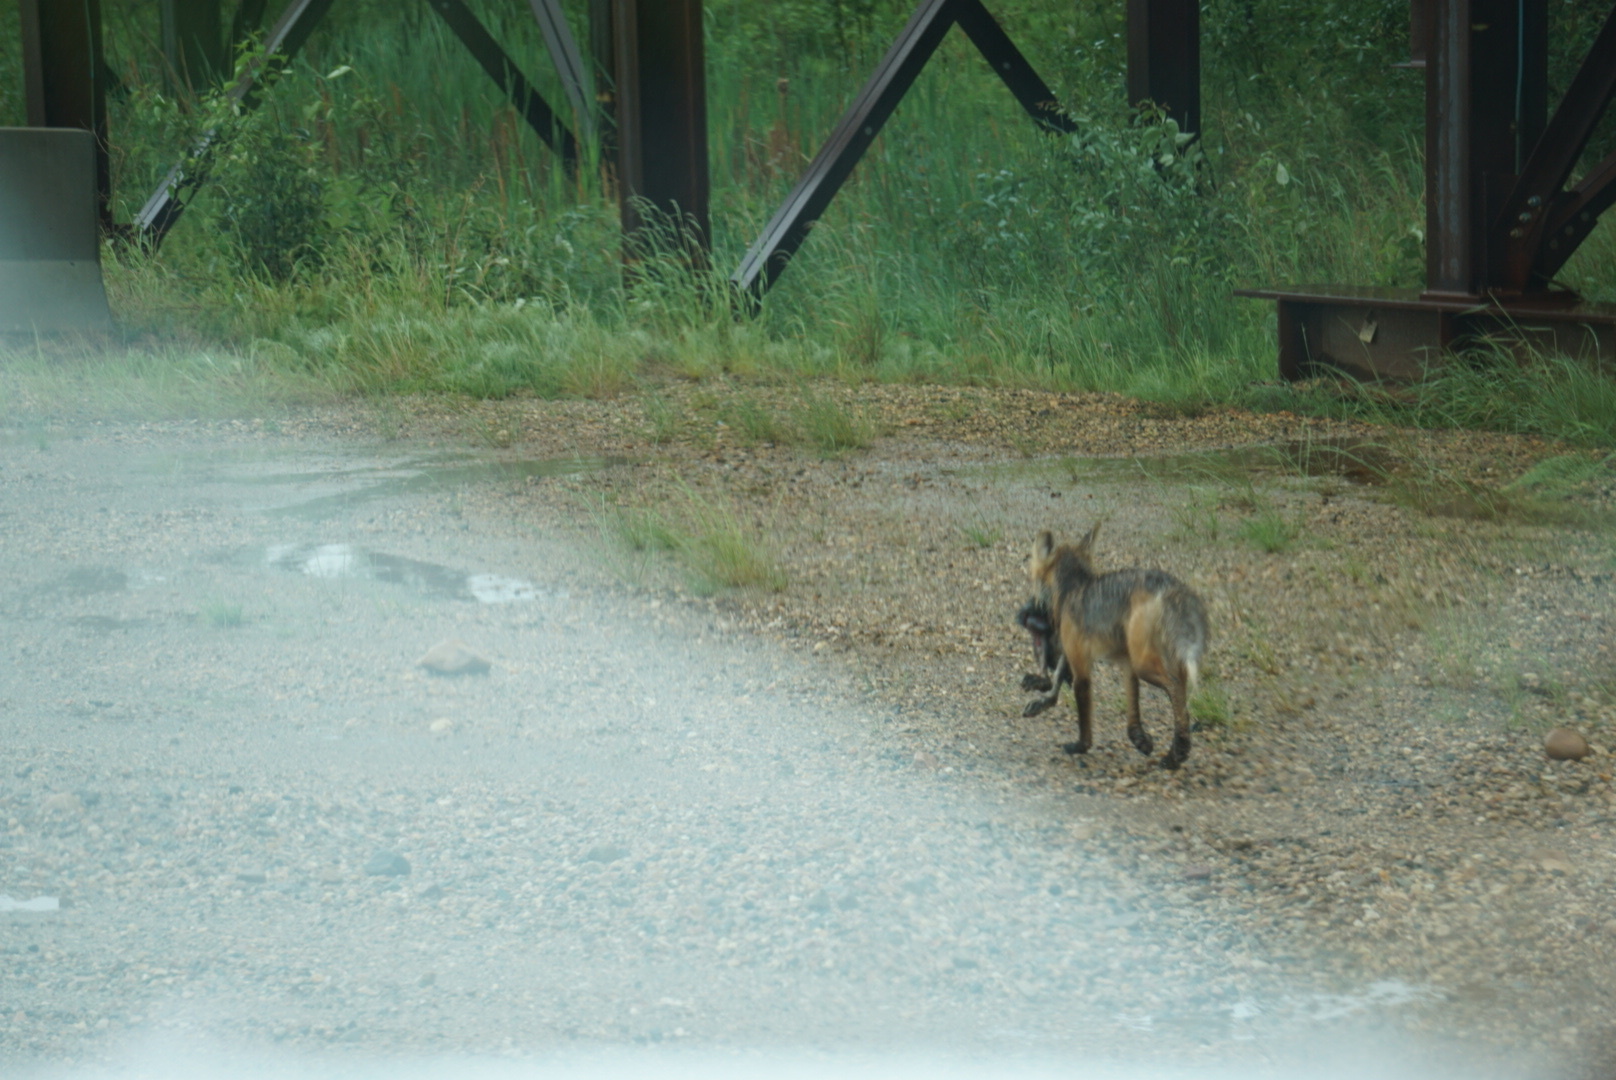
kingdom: Animalia
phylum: Chordata
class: Mammalia
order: Carnivora
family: Canidae
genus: Vulpes
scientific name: Vulpes vulpes
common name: Red fox
